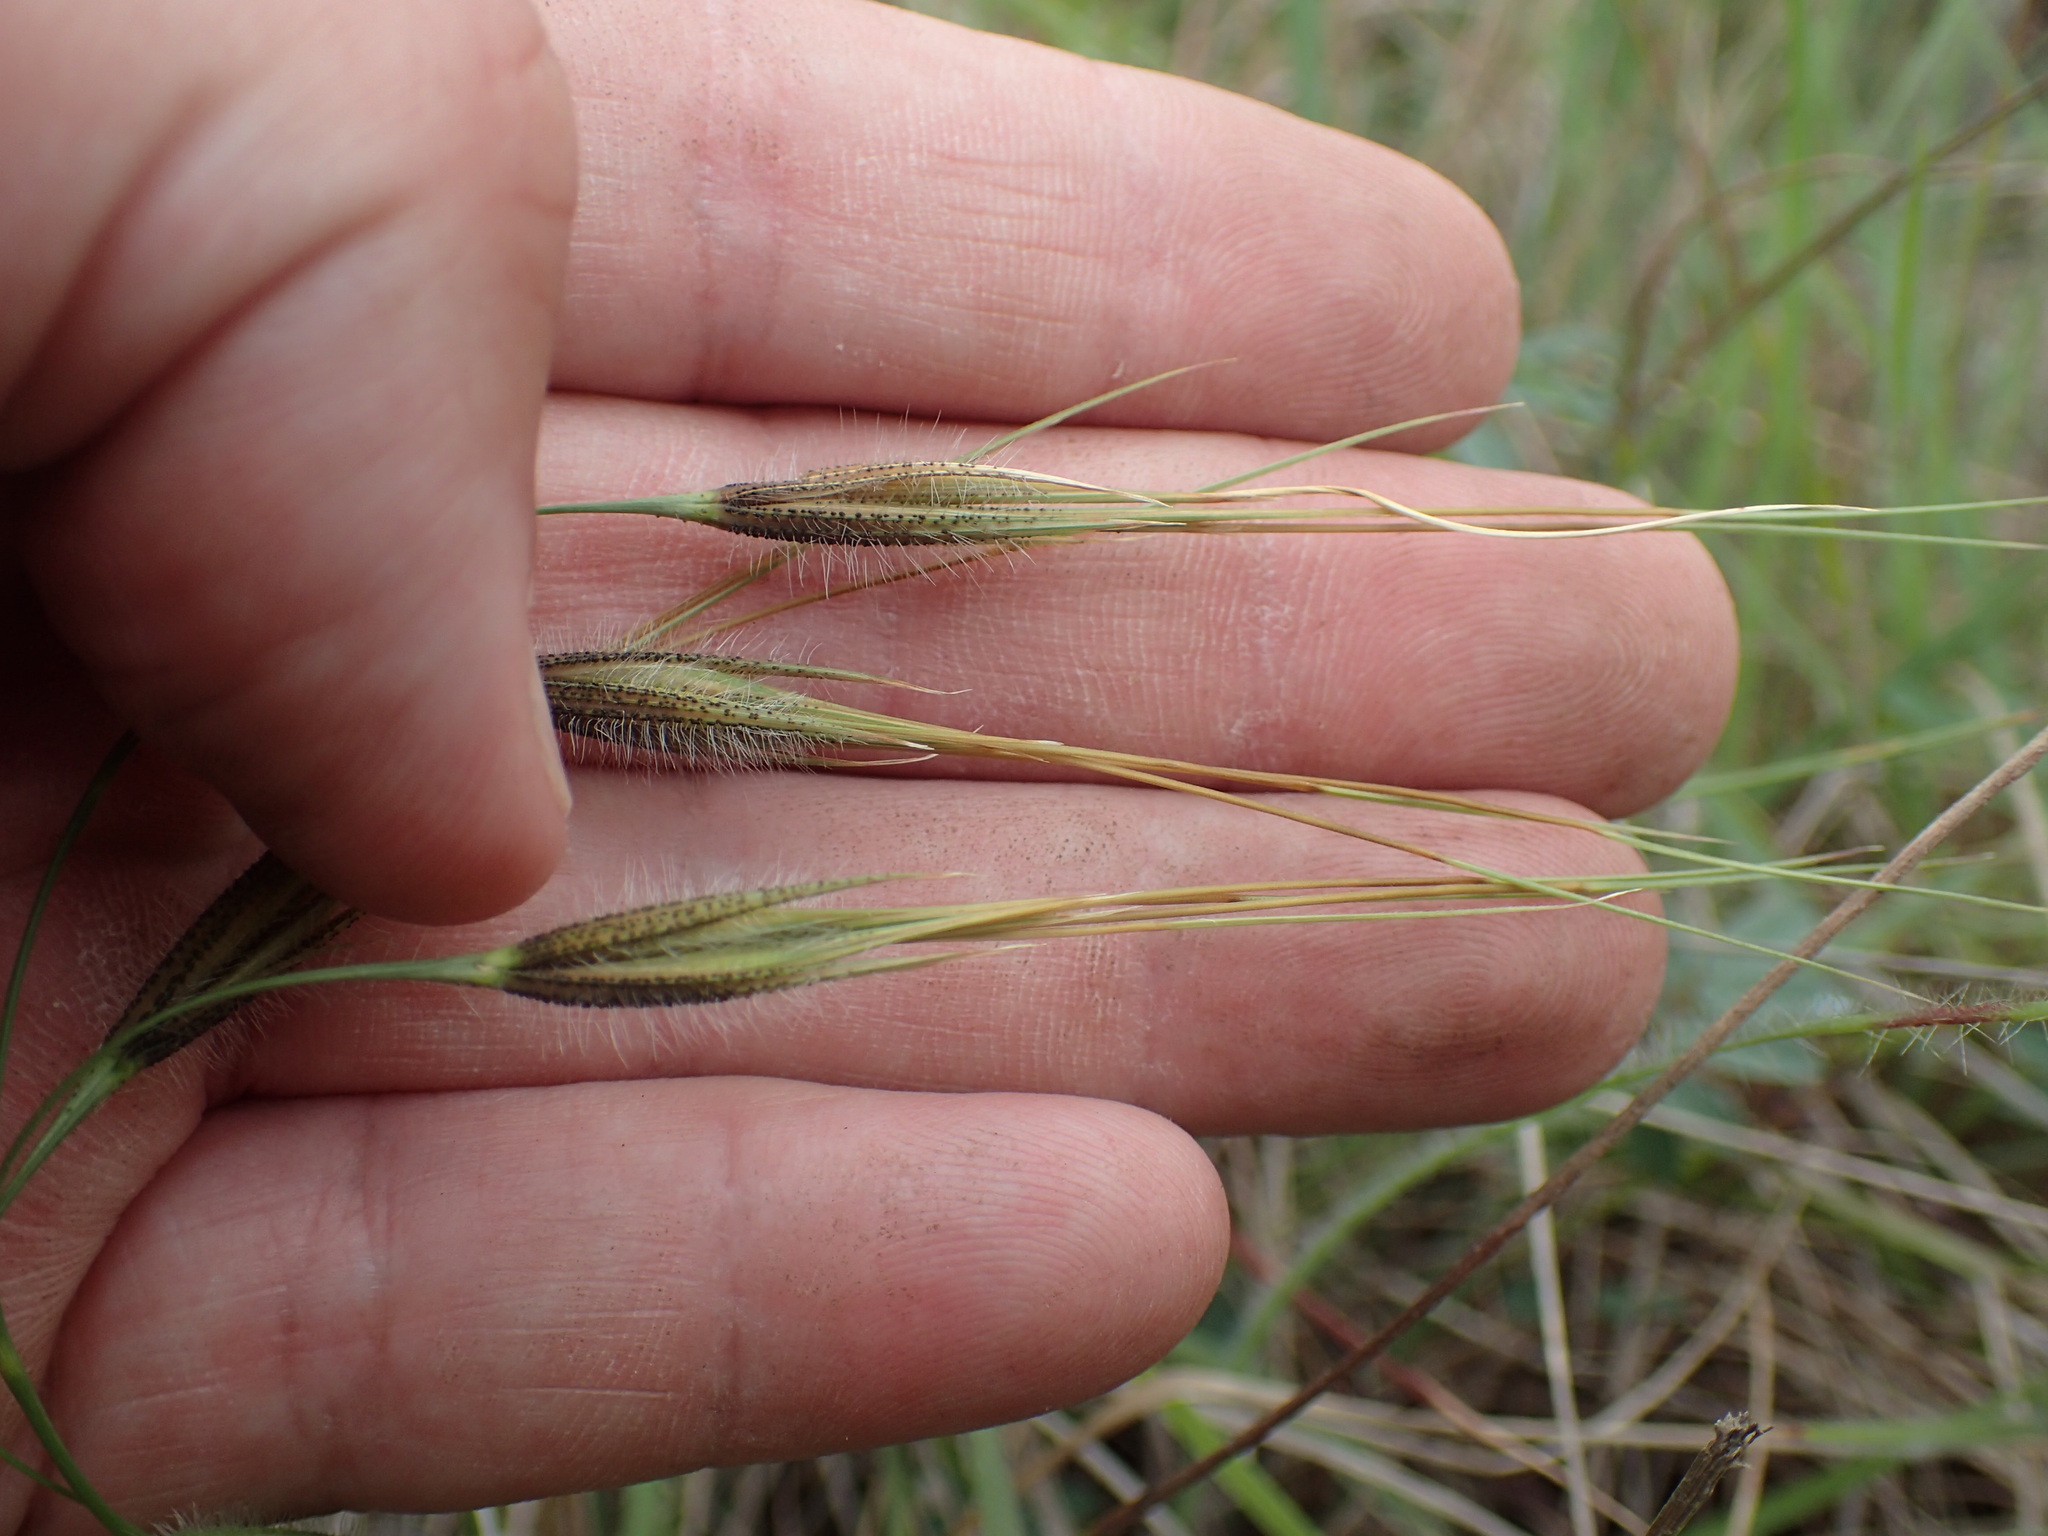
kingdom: Plantae
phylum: Tracheophyta
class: Liliopsida
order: Poales
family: Poaceae
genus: Tristachya
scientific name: Tristachya leucothrix
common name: Trident grass
